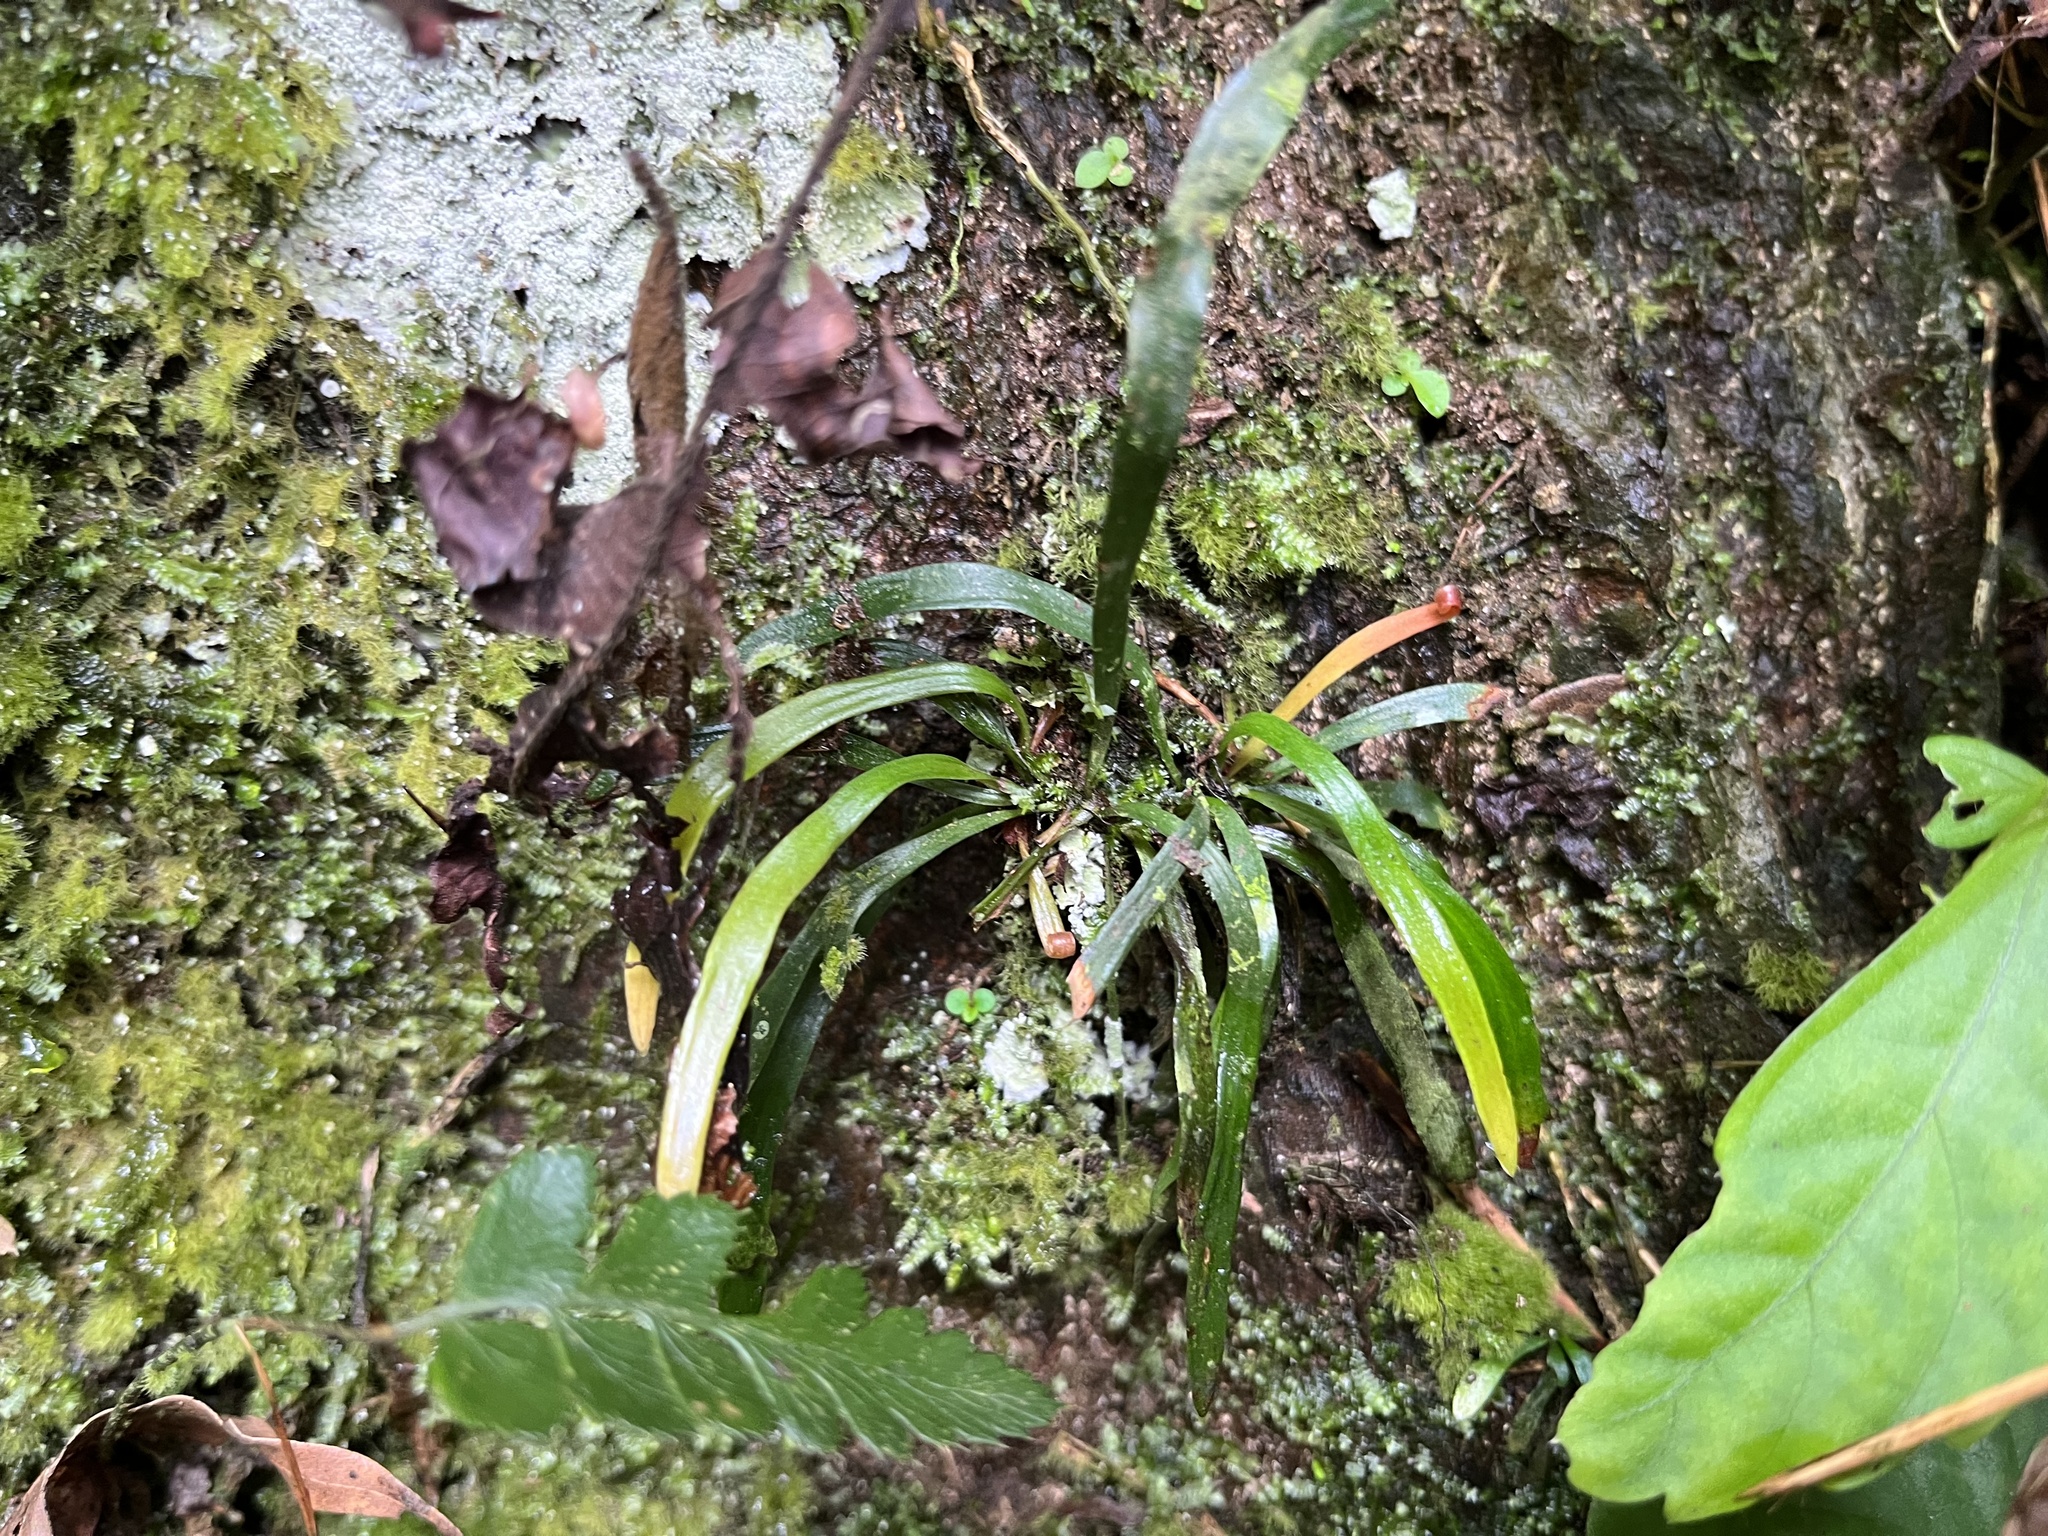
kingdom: Plantae
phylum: Tracheophyta
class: Polypodiopsida
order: Polypodiales
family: Pteridaceae
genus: Haplopteris
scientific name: Haplopteris anguste-elongata
